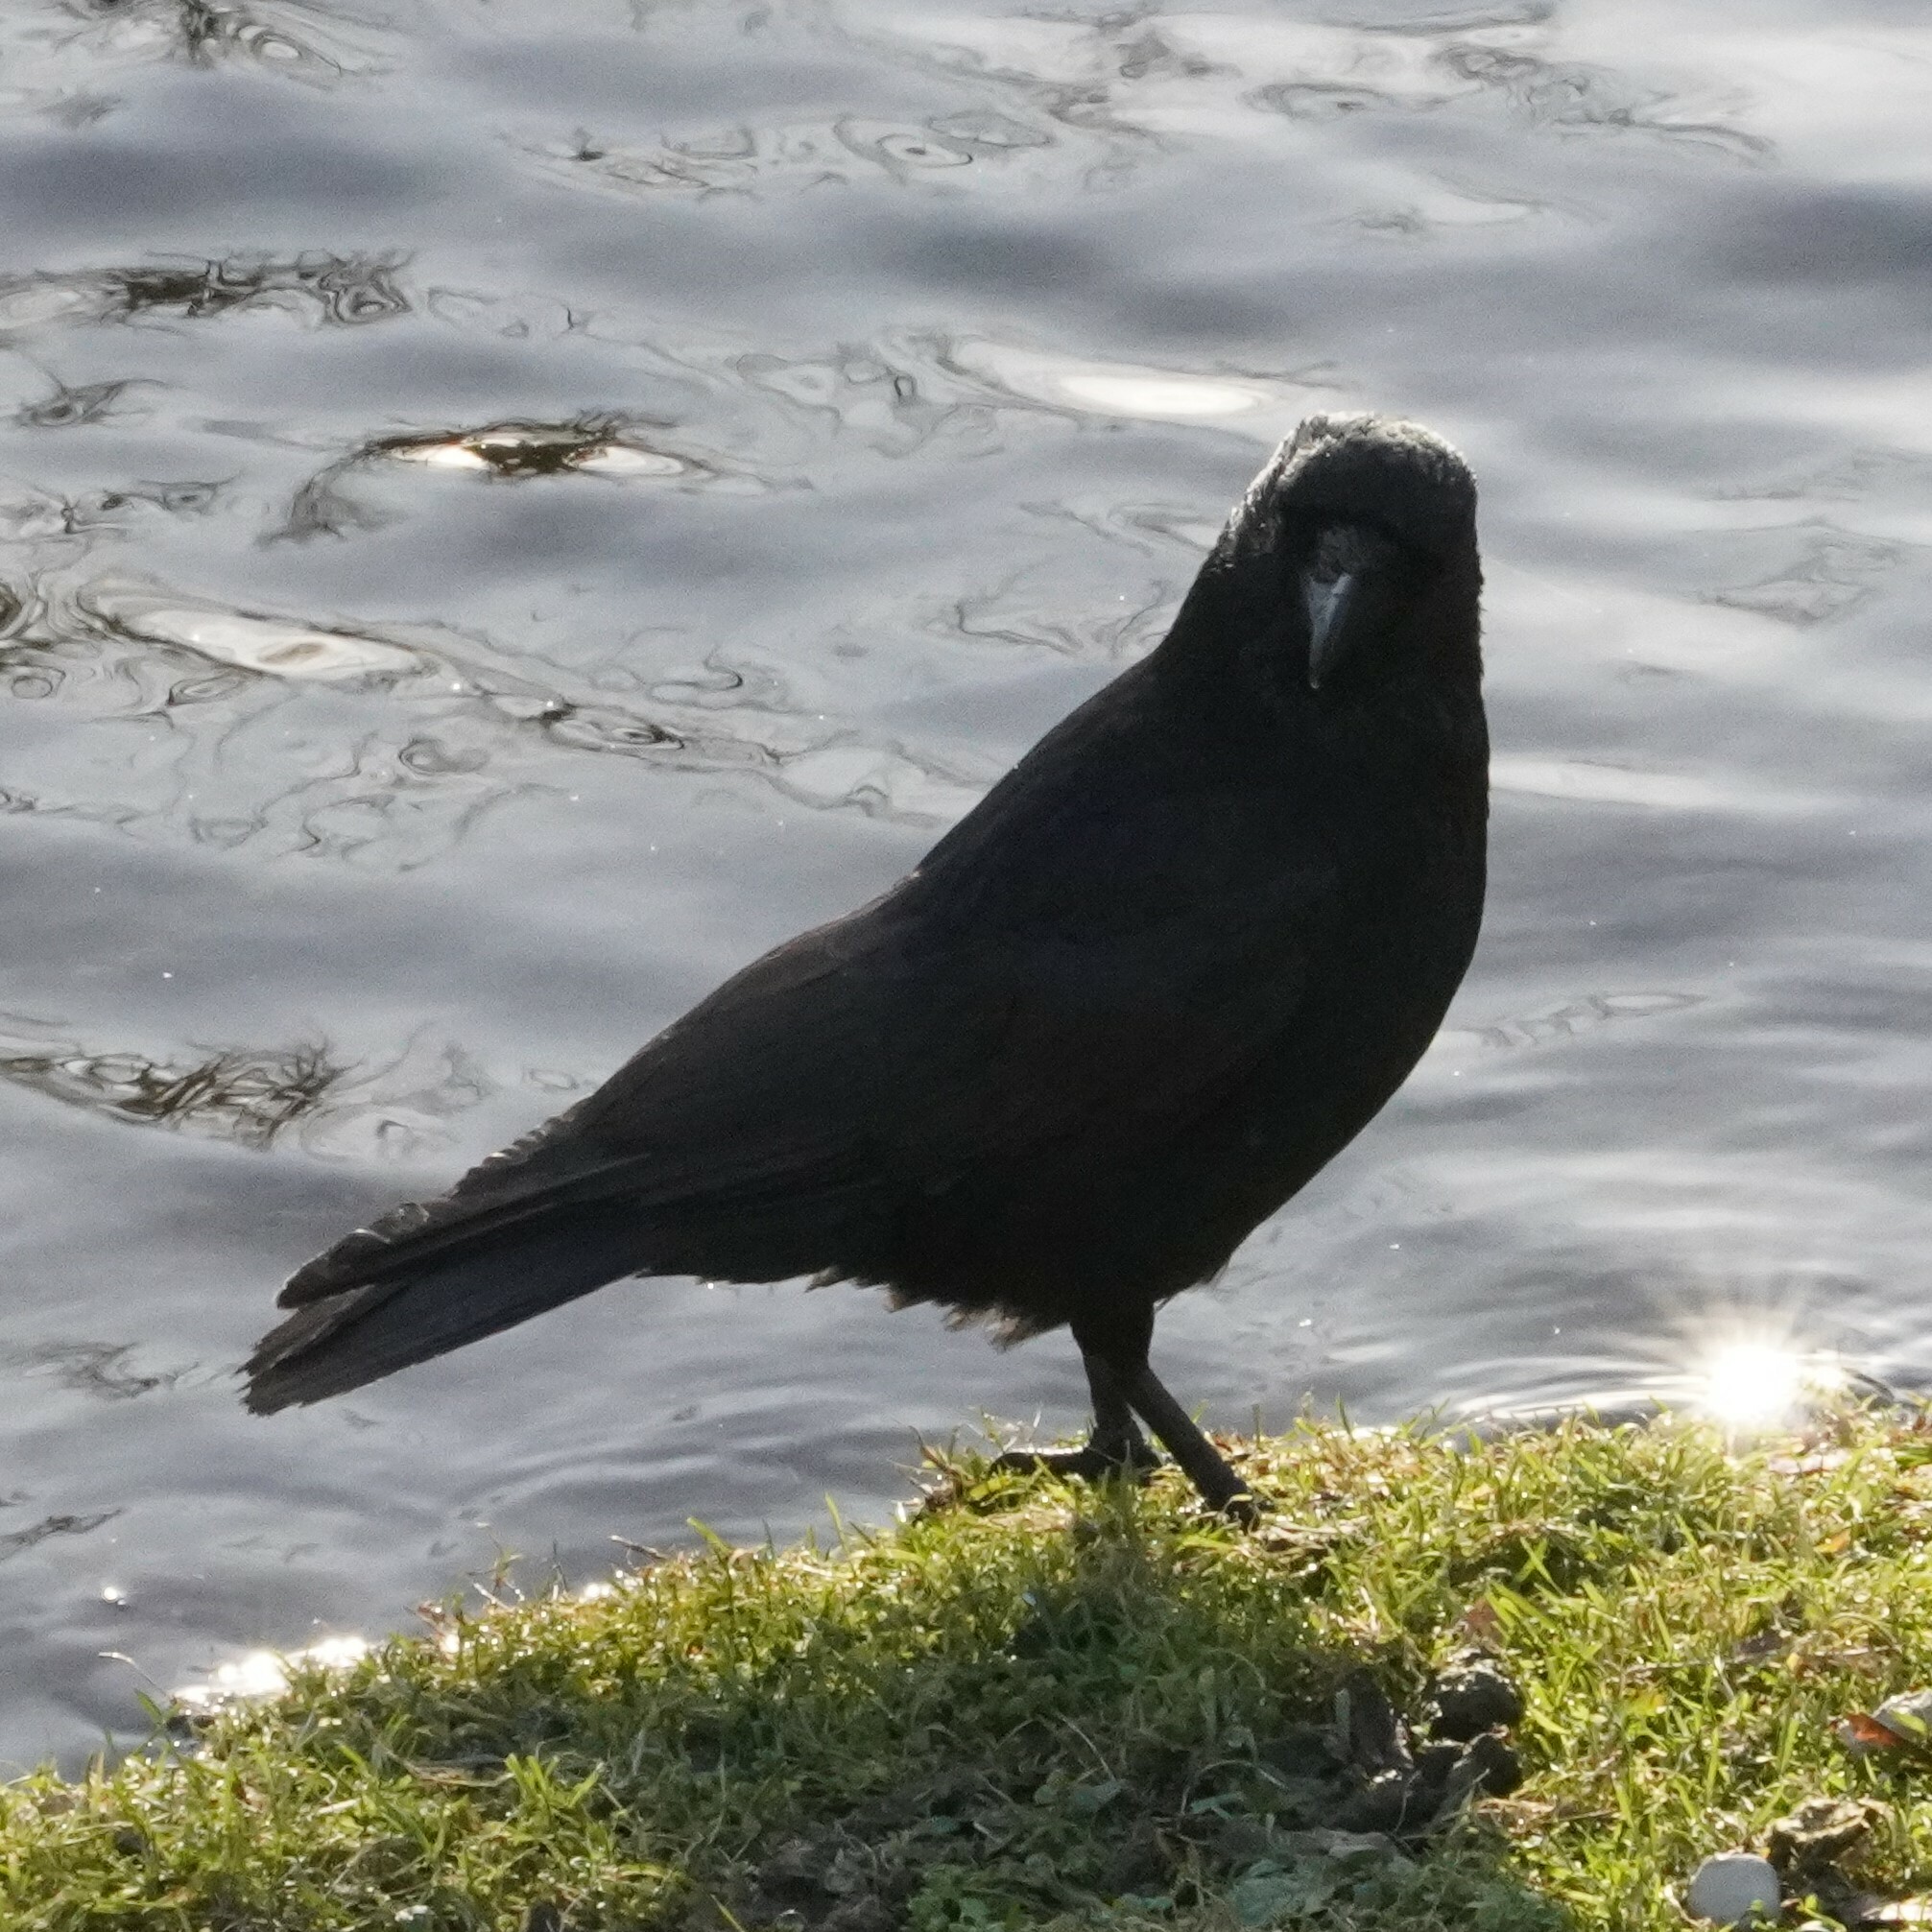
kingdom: Animalia
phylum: Chordata
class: Aves
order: Passeriformes
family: Corvidae
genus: Corvus
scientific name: Corvus corone
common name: Carrion crow
